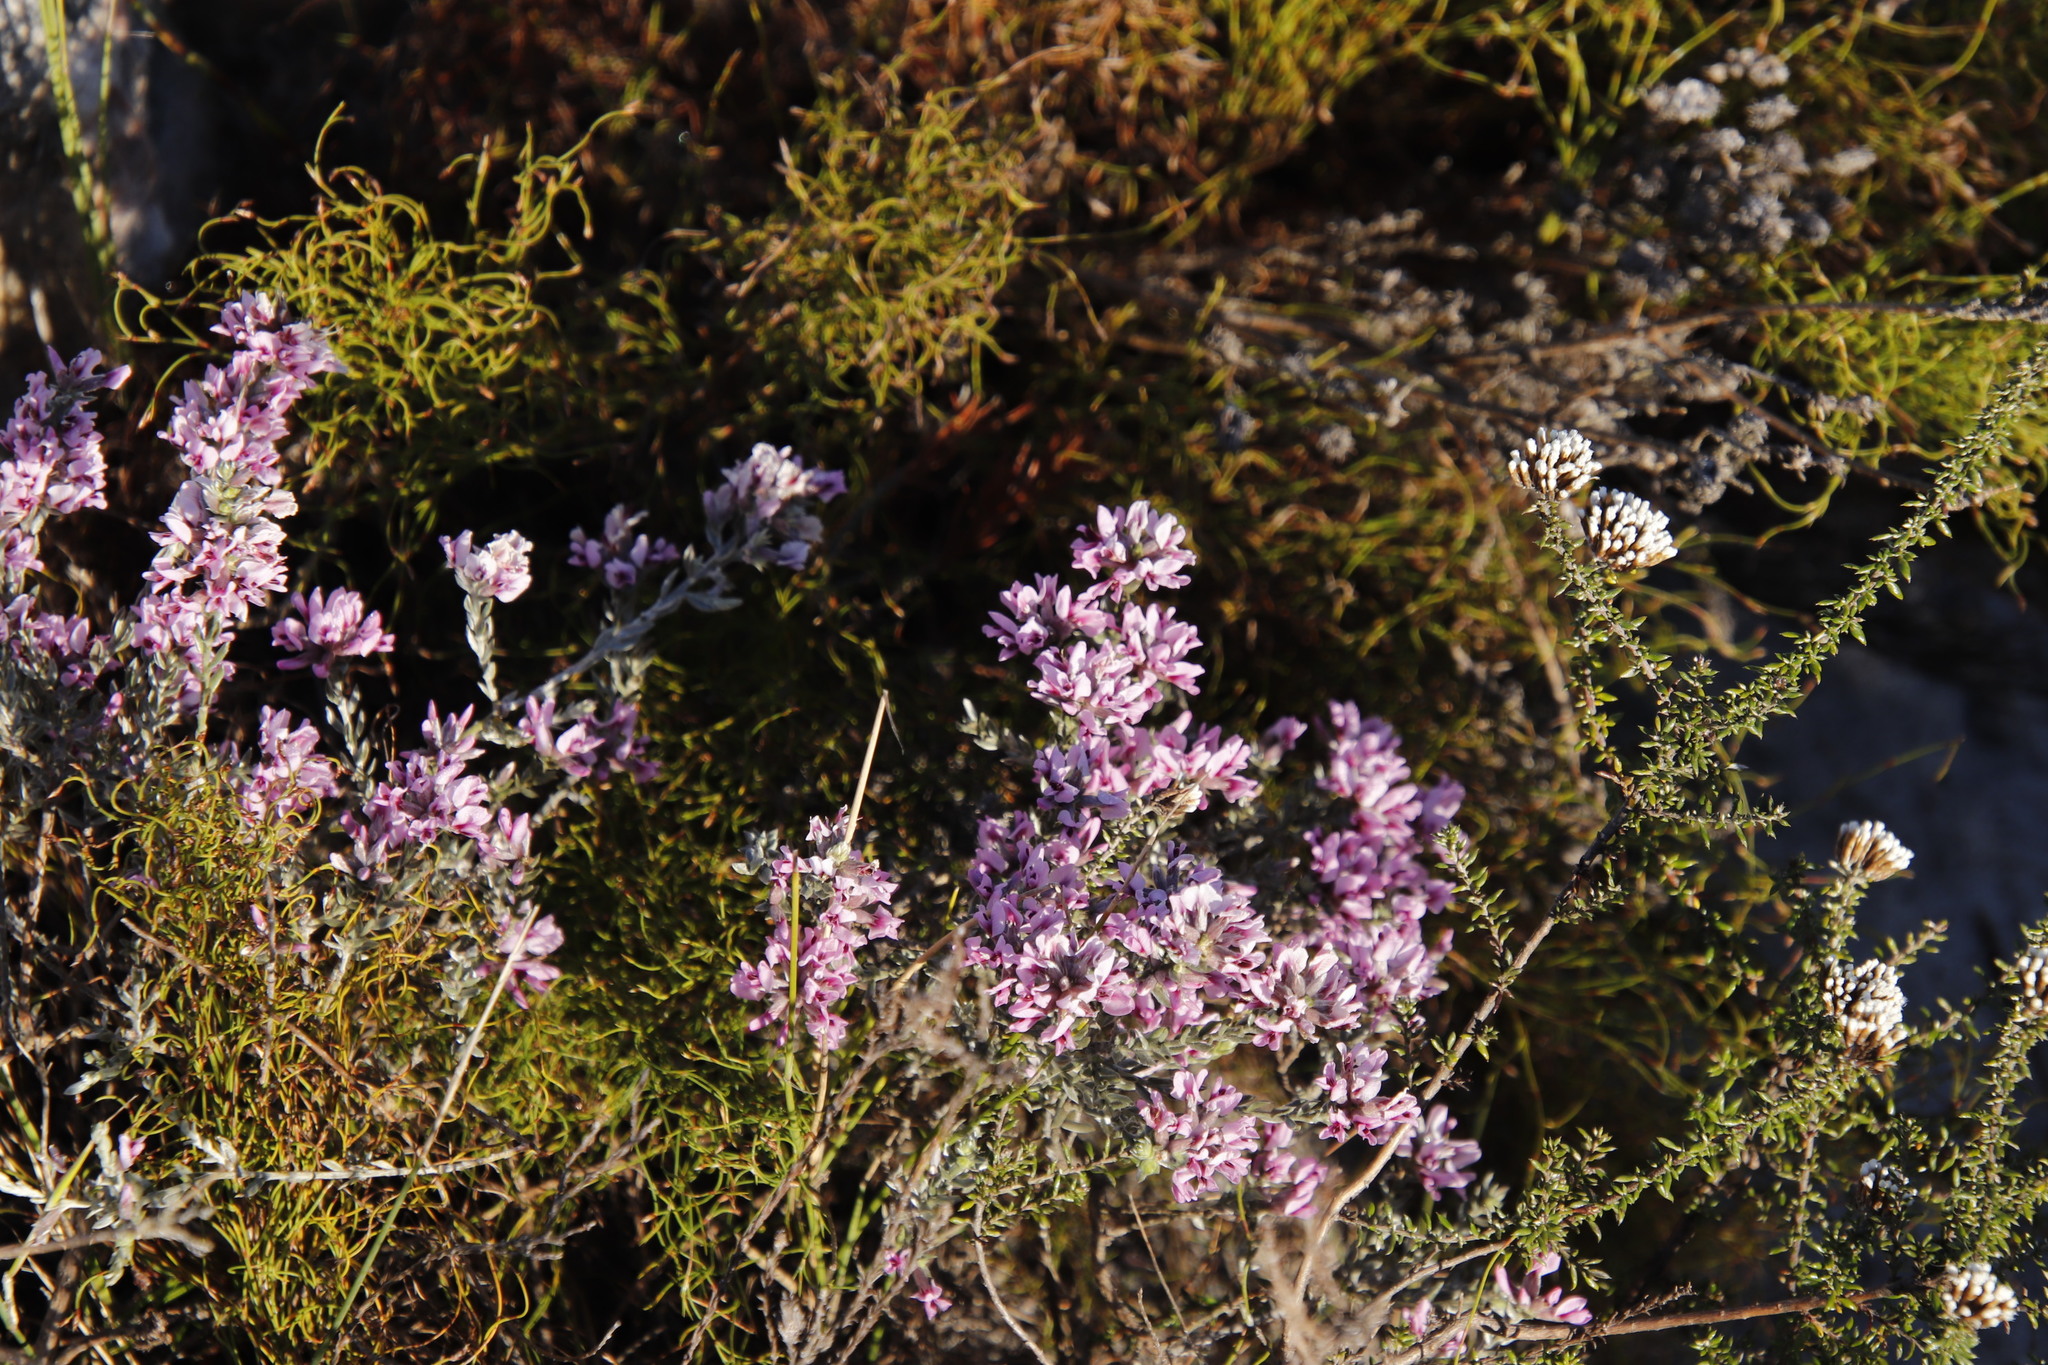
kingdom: Plantae
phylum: Tracheophyta
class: Magnoliopsida
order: Fabales
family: Fabaceae
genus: Amphithalea
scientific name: Amphithalea ericifolia
